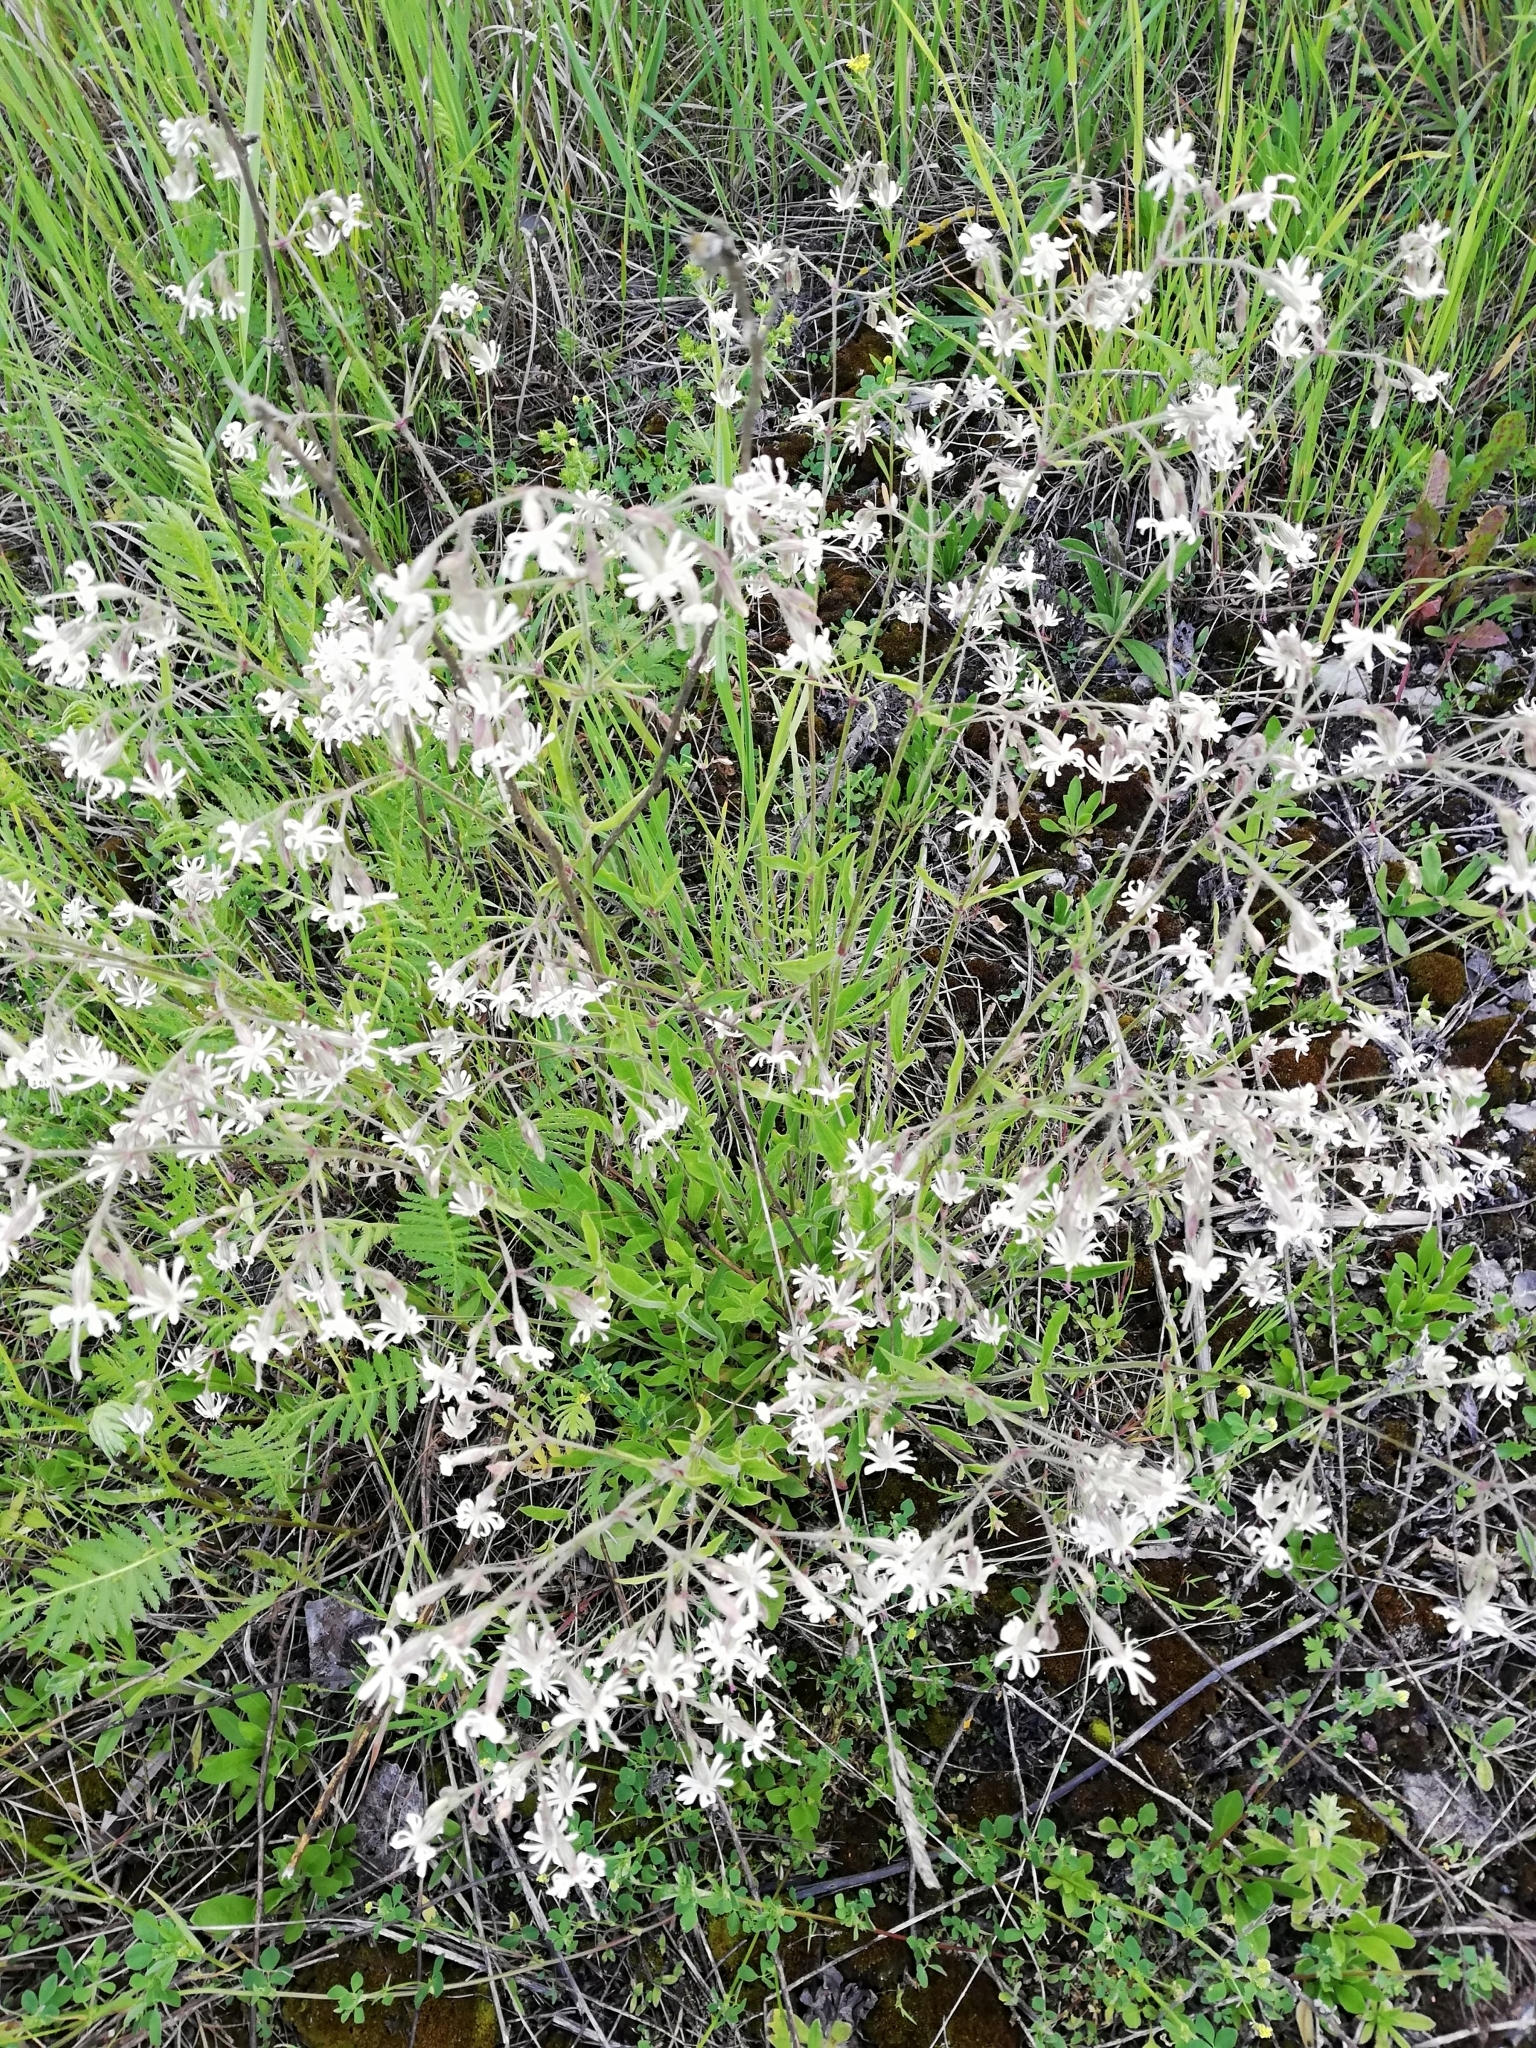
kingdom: Plantae
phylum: Tracheophyta
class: Magnoliopsida
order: Caryophyllales
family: Caryophyllaceae
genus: Silene
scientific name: Silene nutans
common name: Nottingham catchfly
